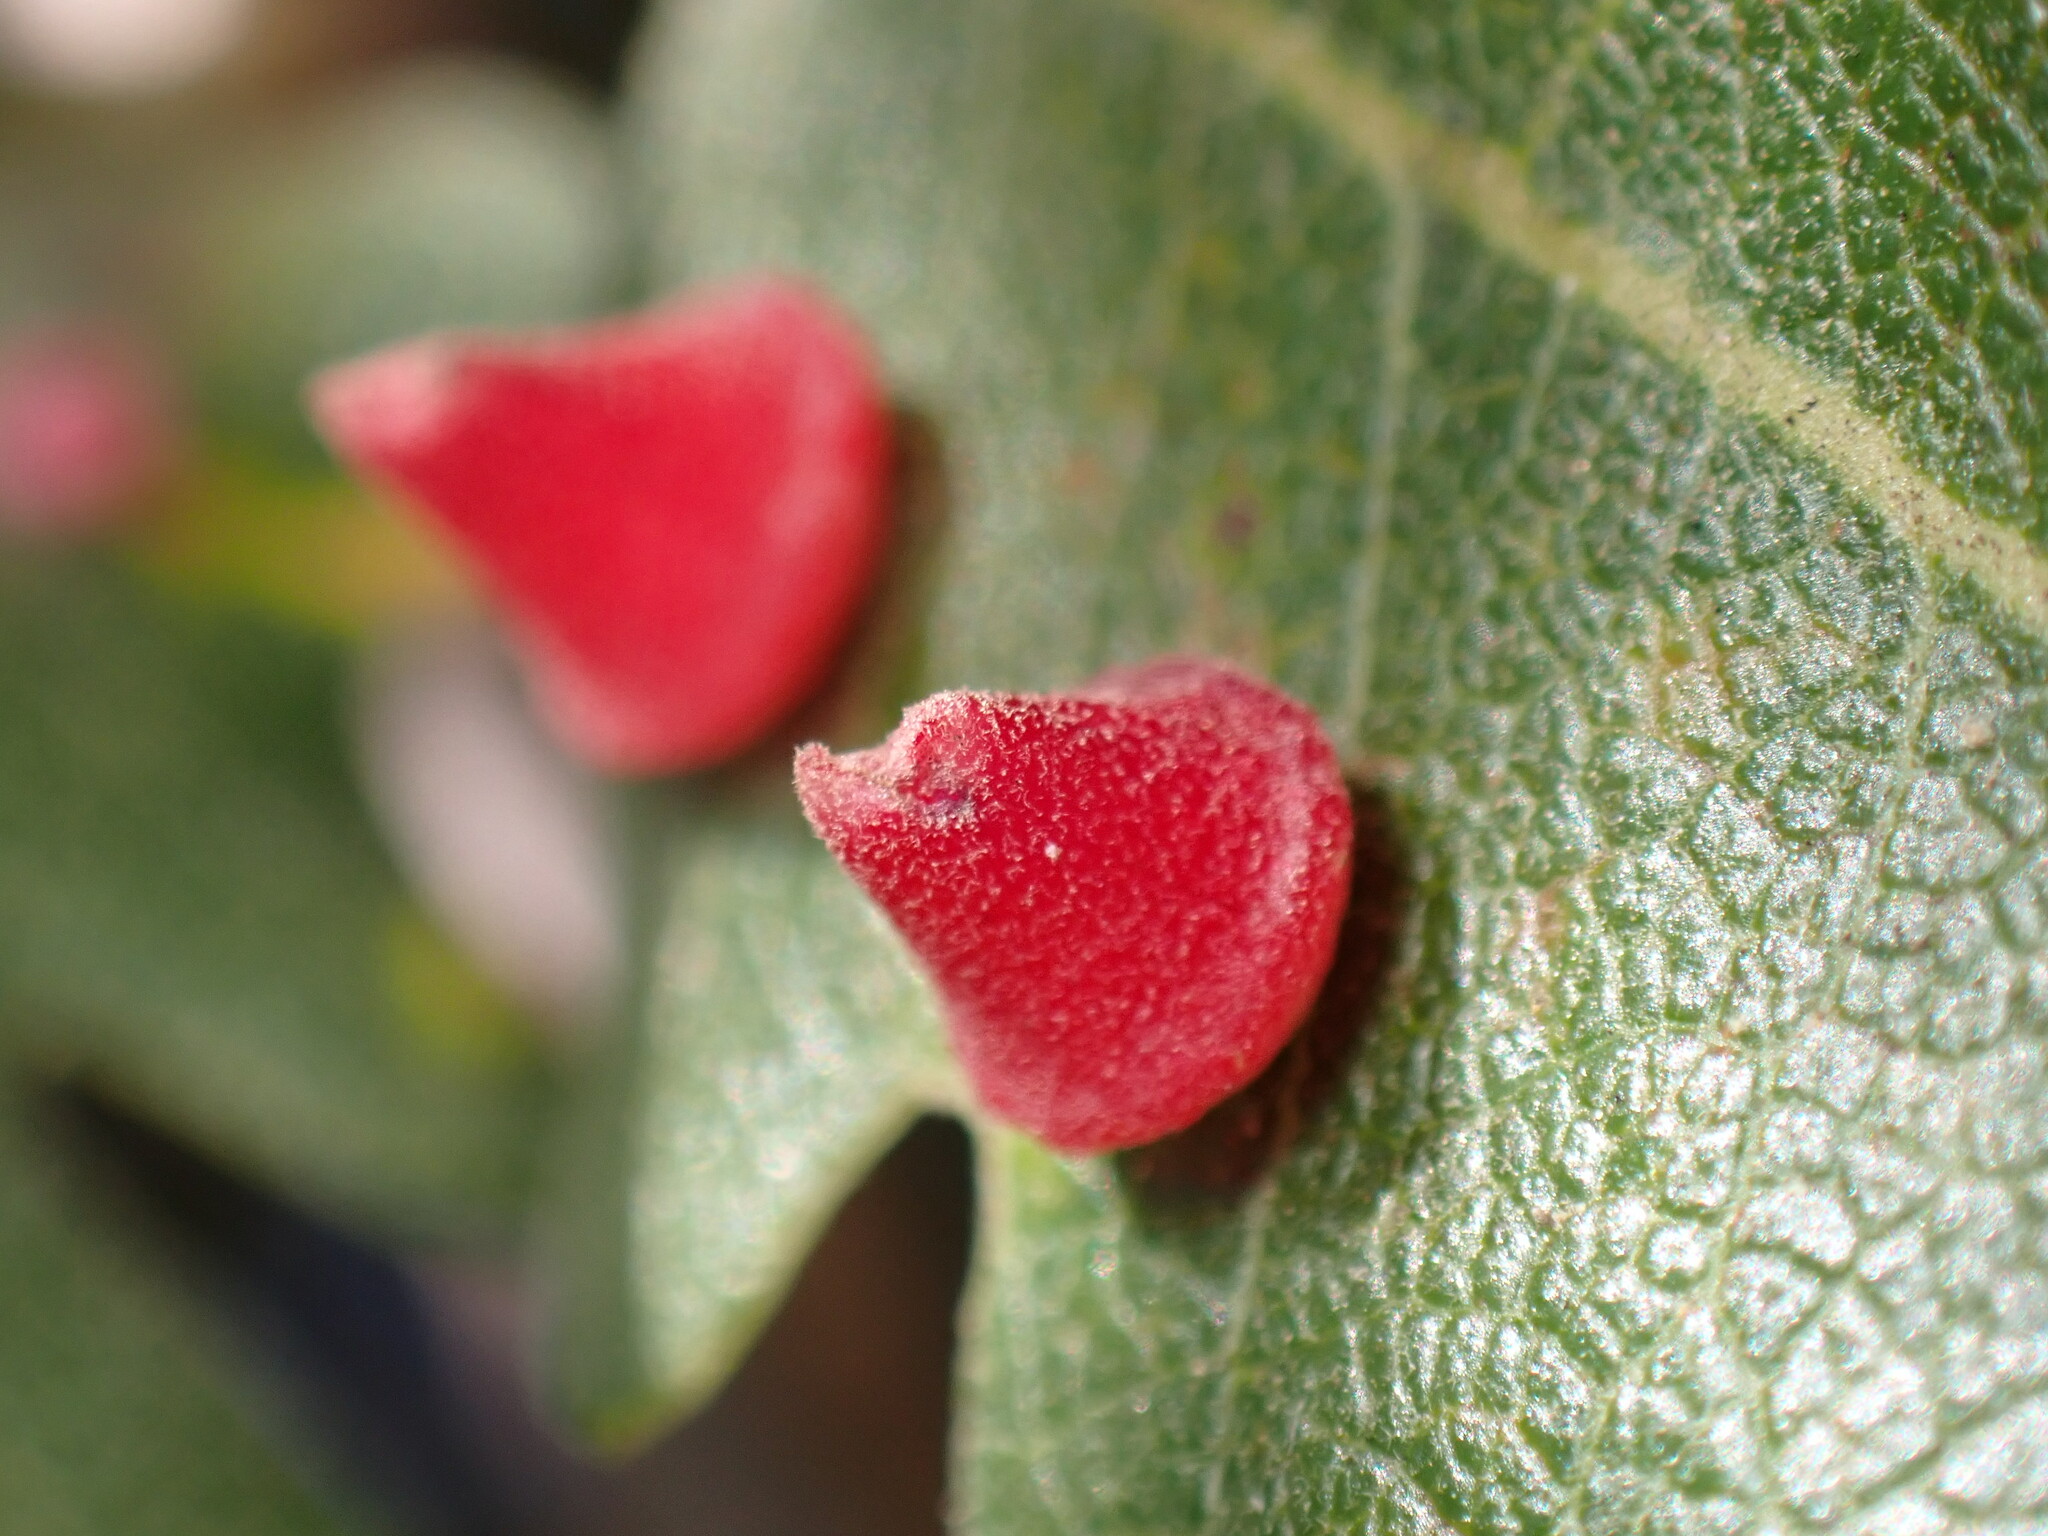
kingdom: Animalia
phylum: Arthropoda
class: Insecta
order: Hymenoptera
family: Cynipidae
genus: Andricus
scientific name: Andricus
